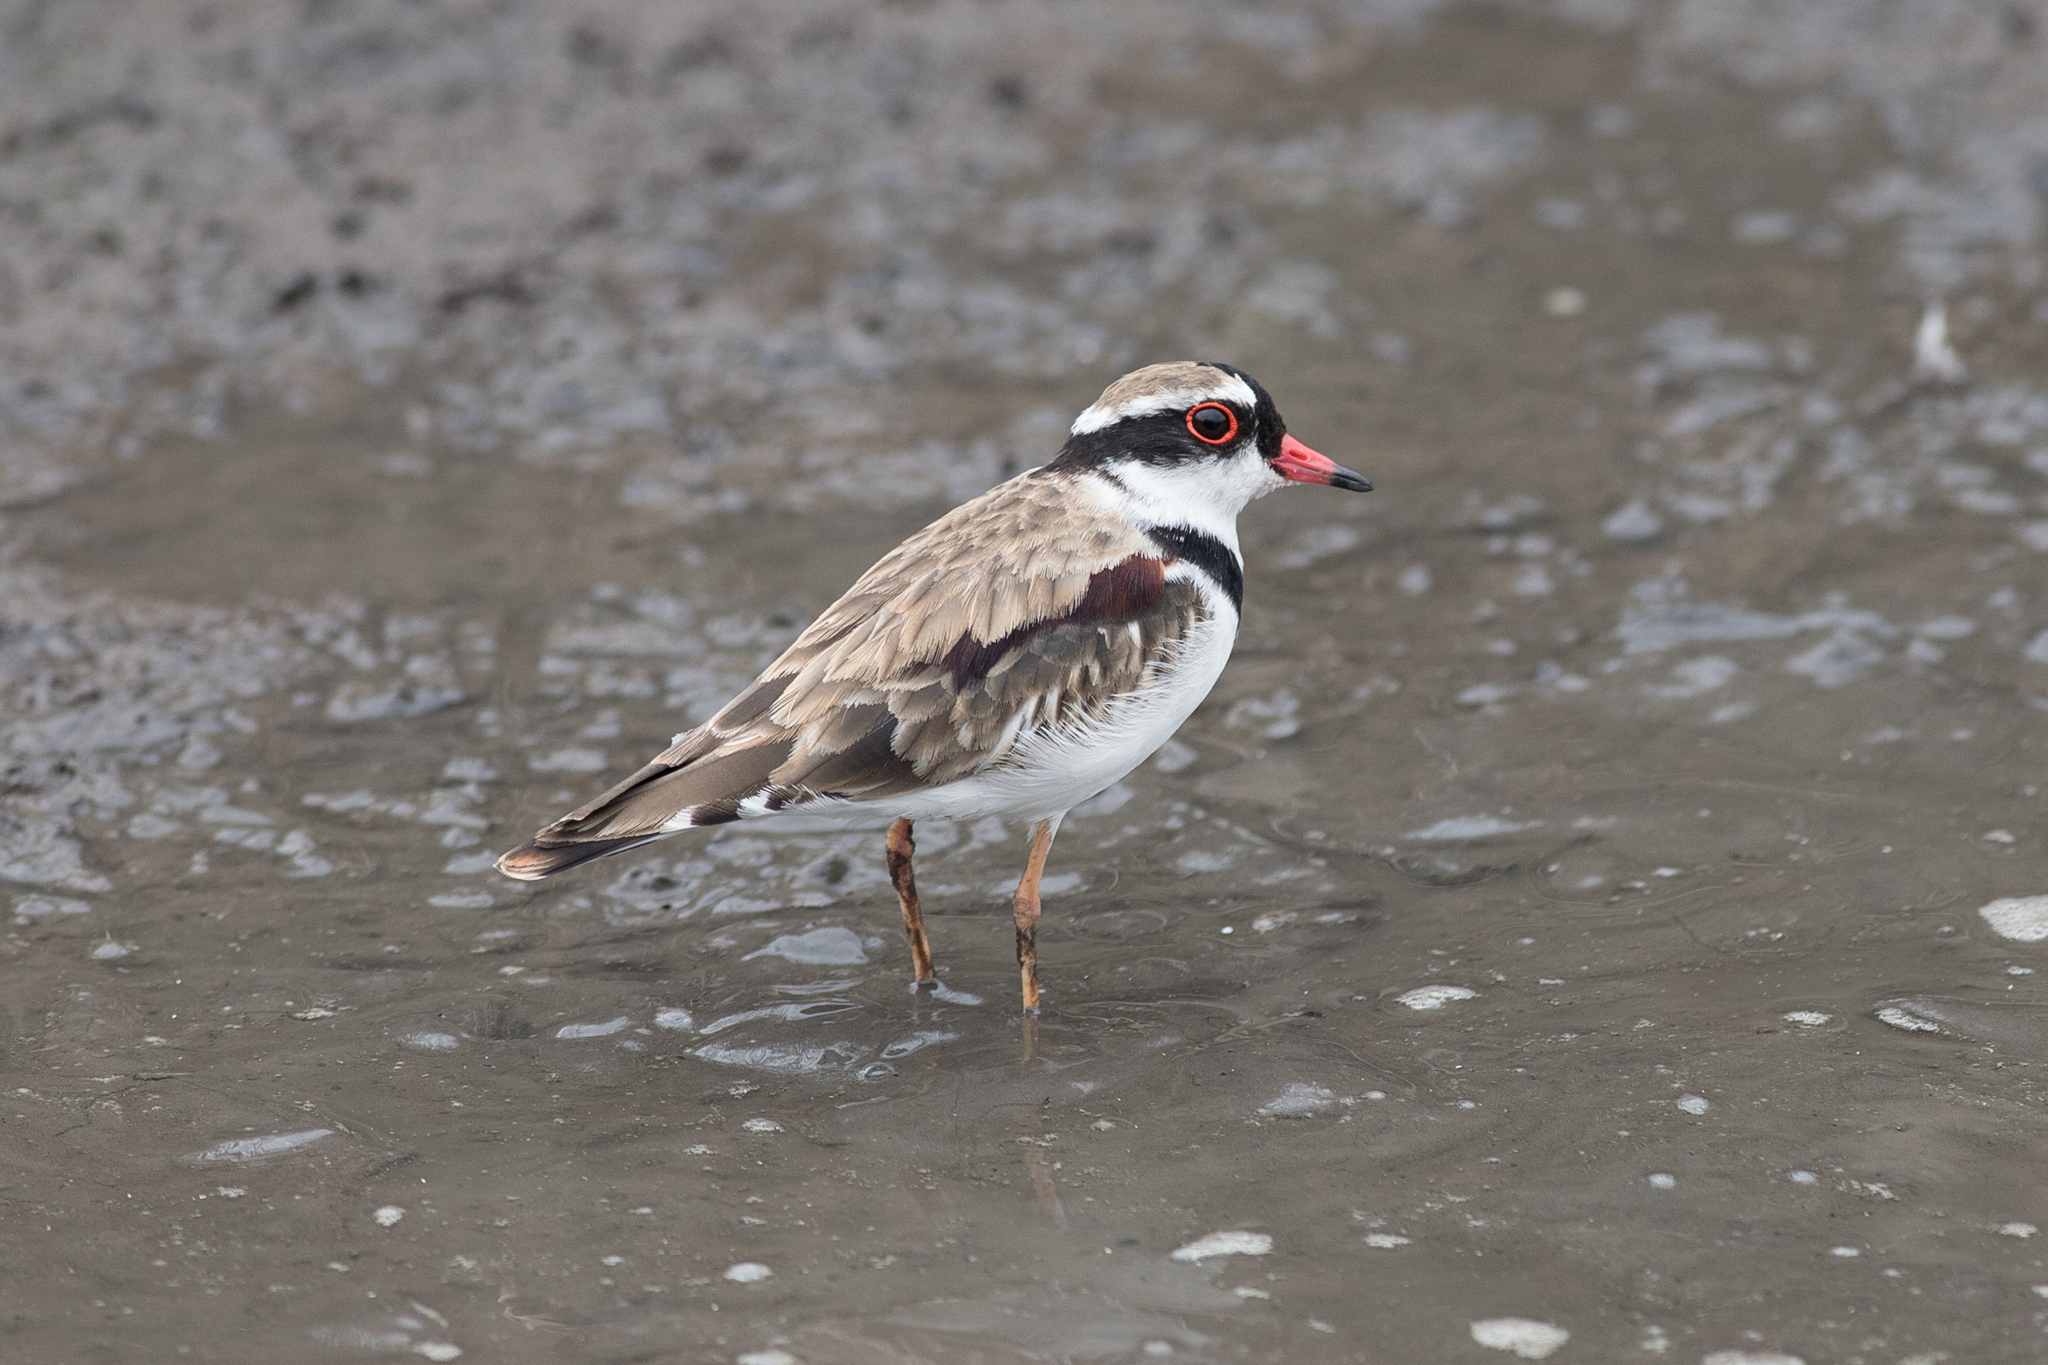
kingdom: Animalia
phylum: Chordata
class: Aves
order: Charadriiformes
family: Charadriidae
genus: Elseyornis
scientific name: Elseyornis melanops
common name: Black-fronted dotterel
